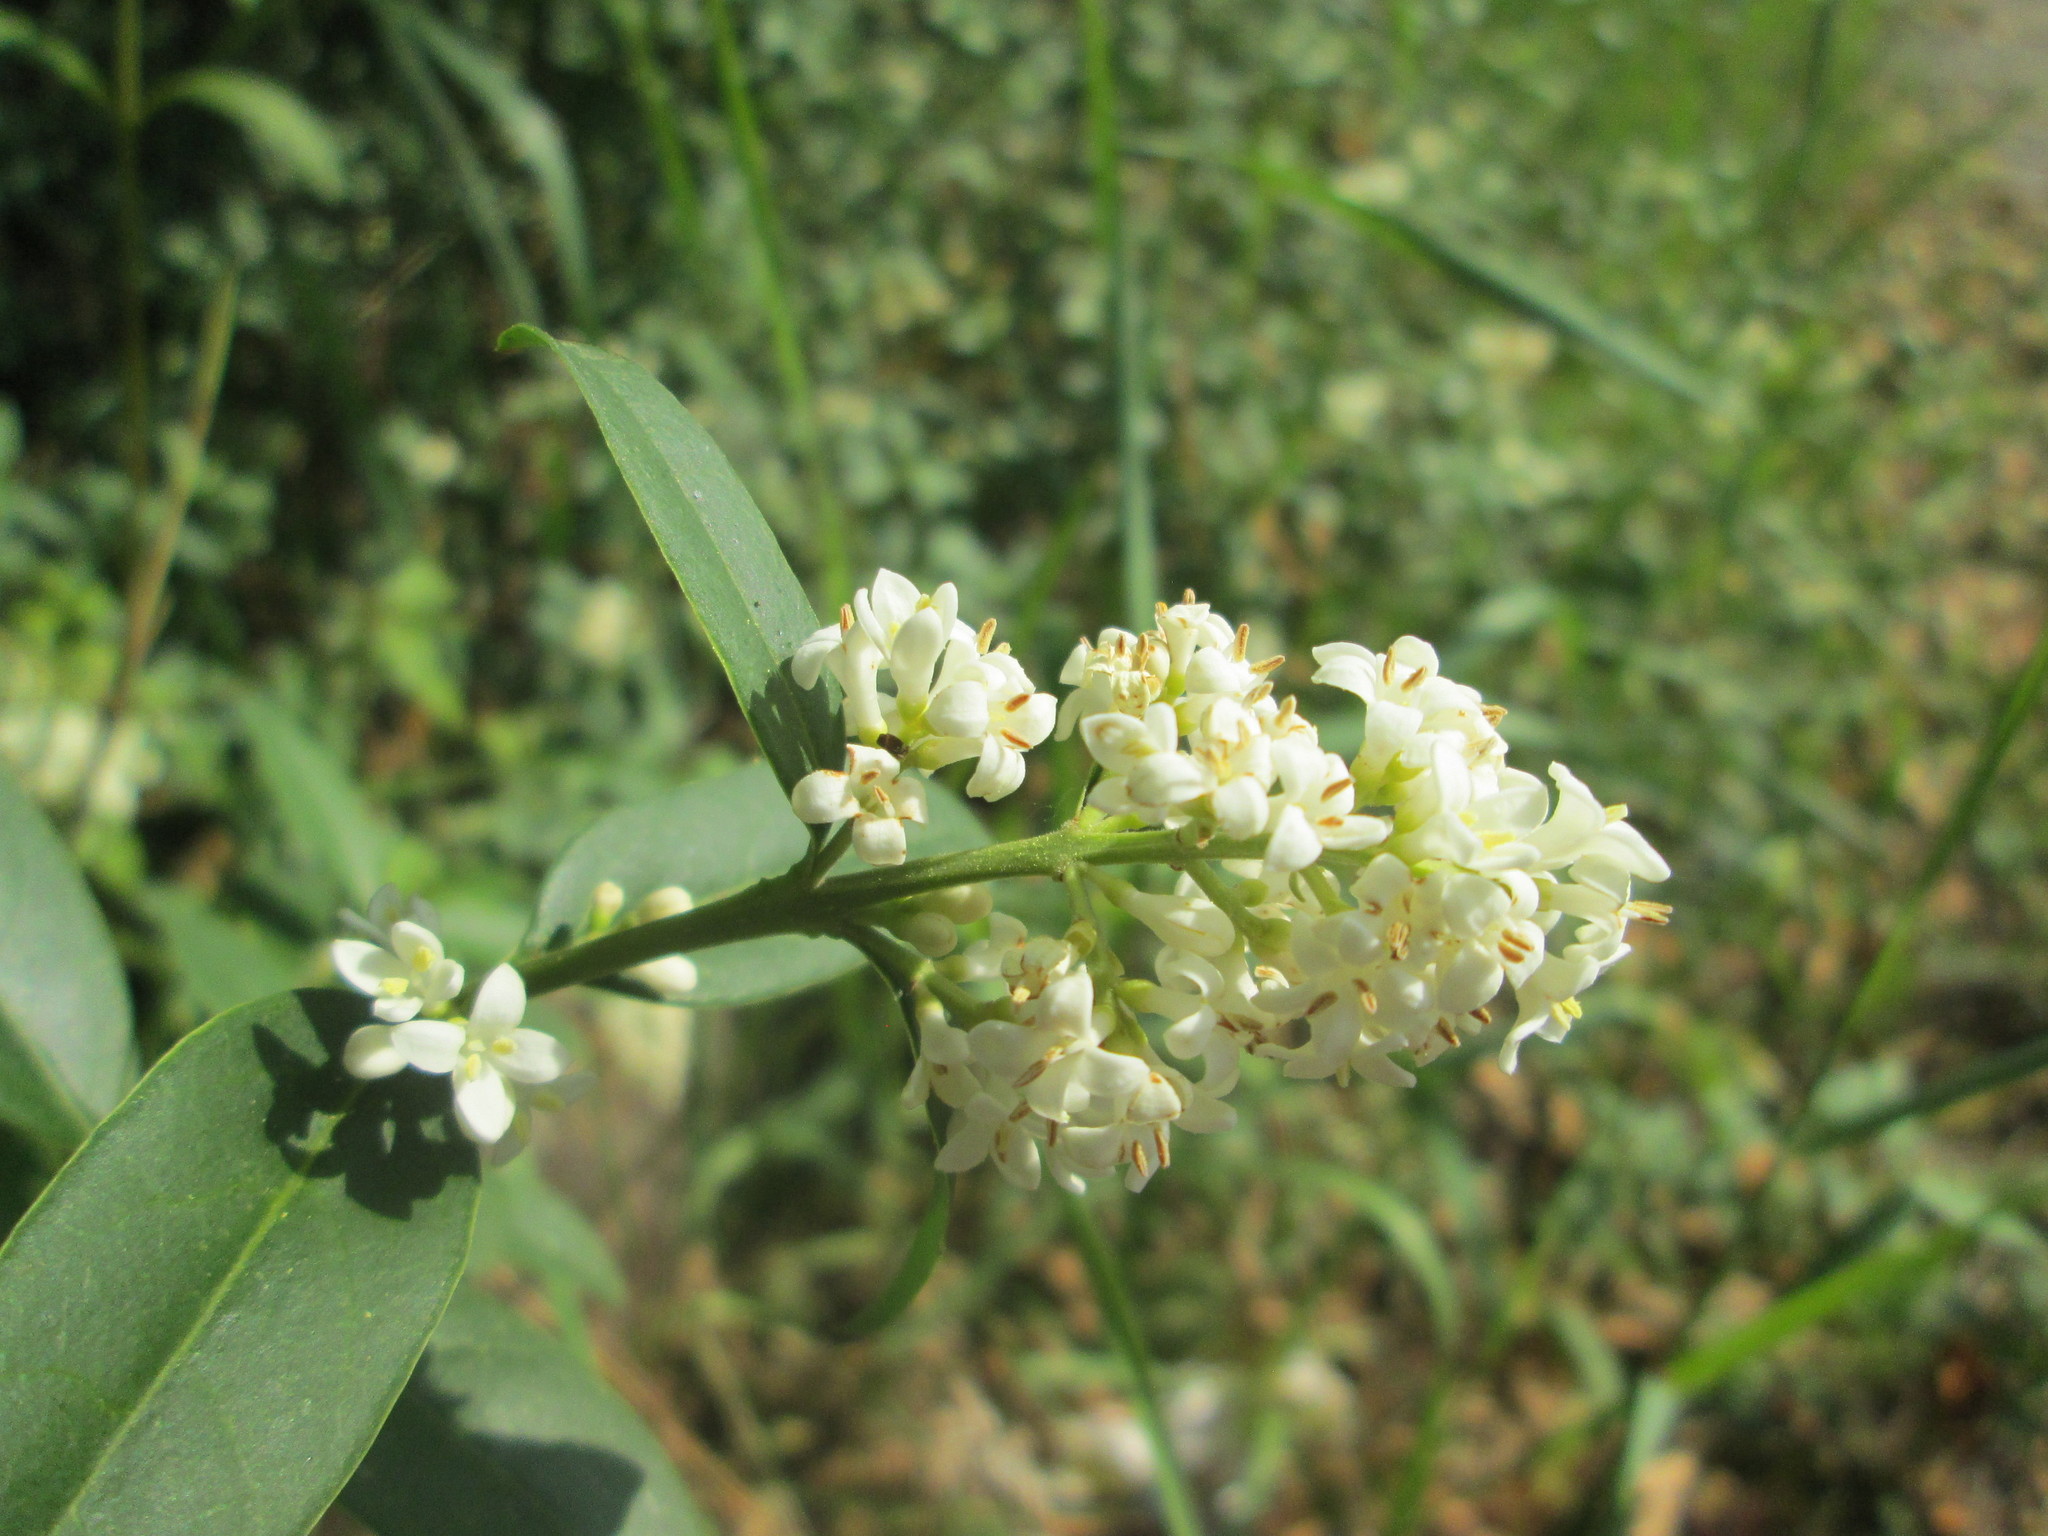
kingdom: Plantae
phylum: Tracheophyta
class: Magnoliopsida
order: Lamiales
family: Oleaceae
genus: Ligustrum
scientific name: Ligustrum vulgare
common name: Wild privet
